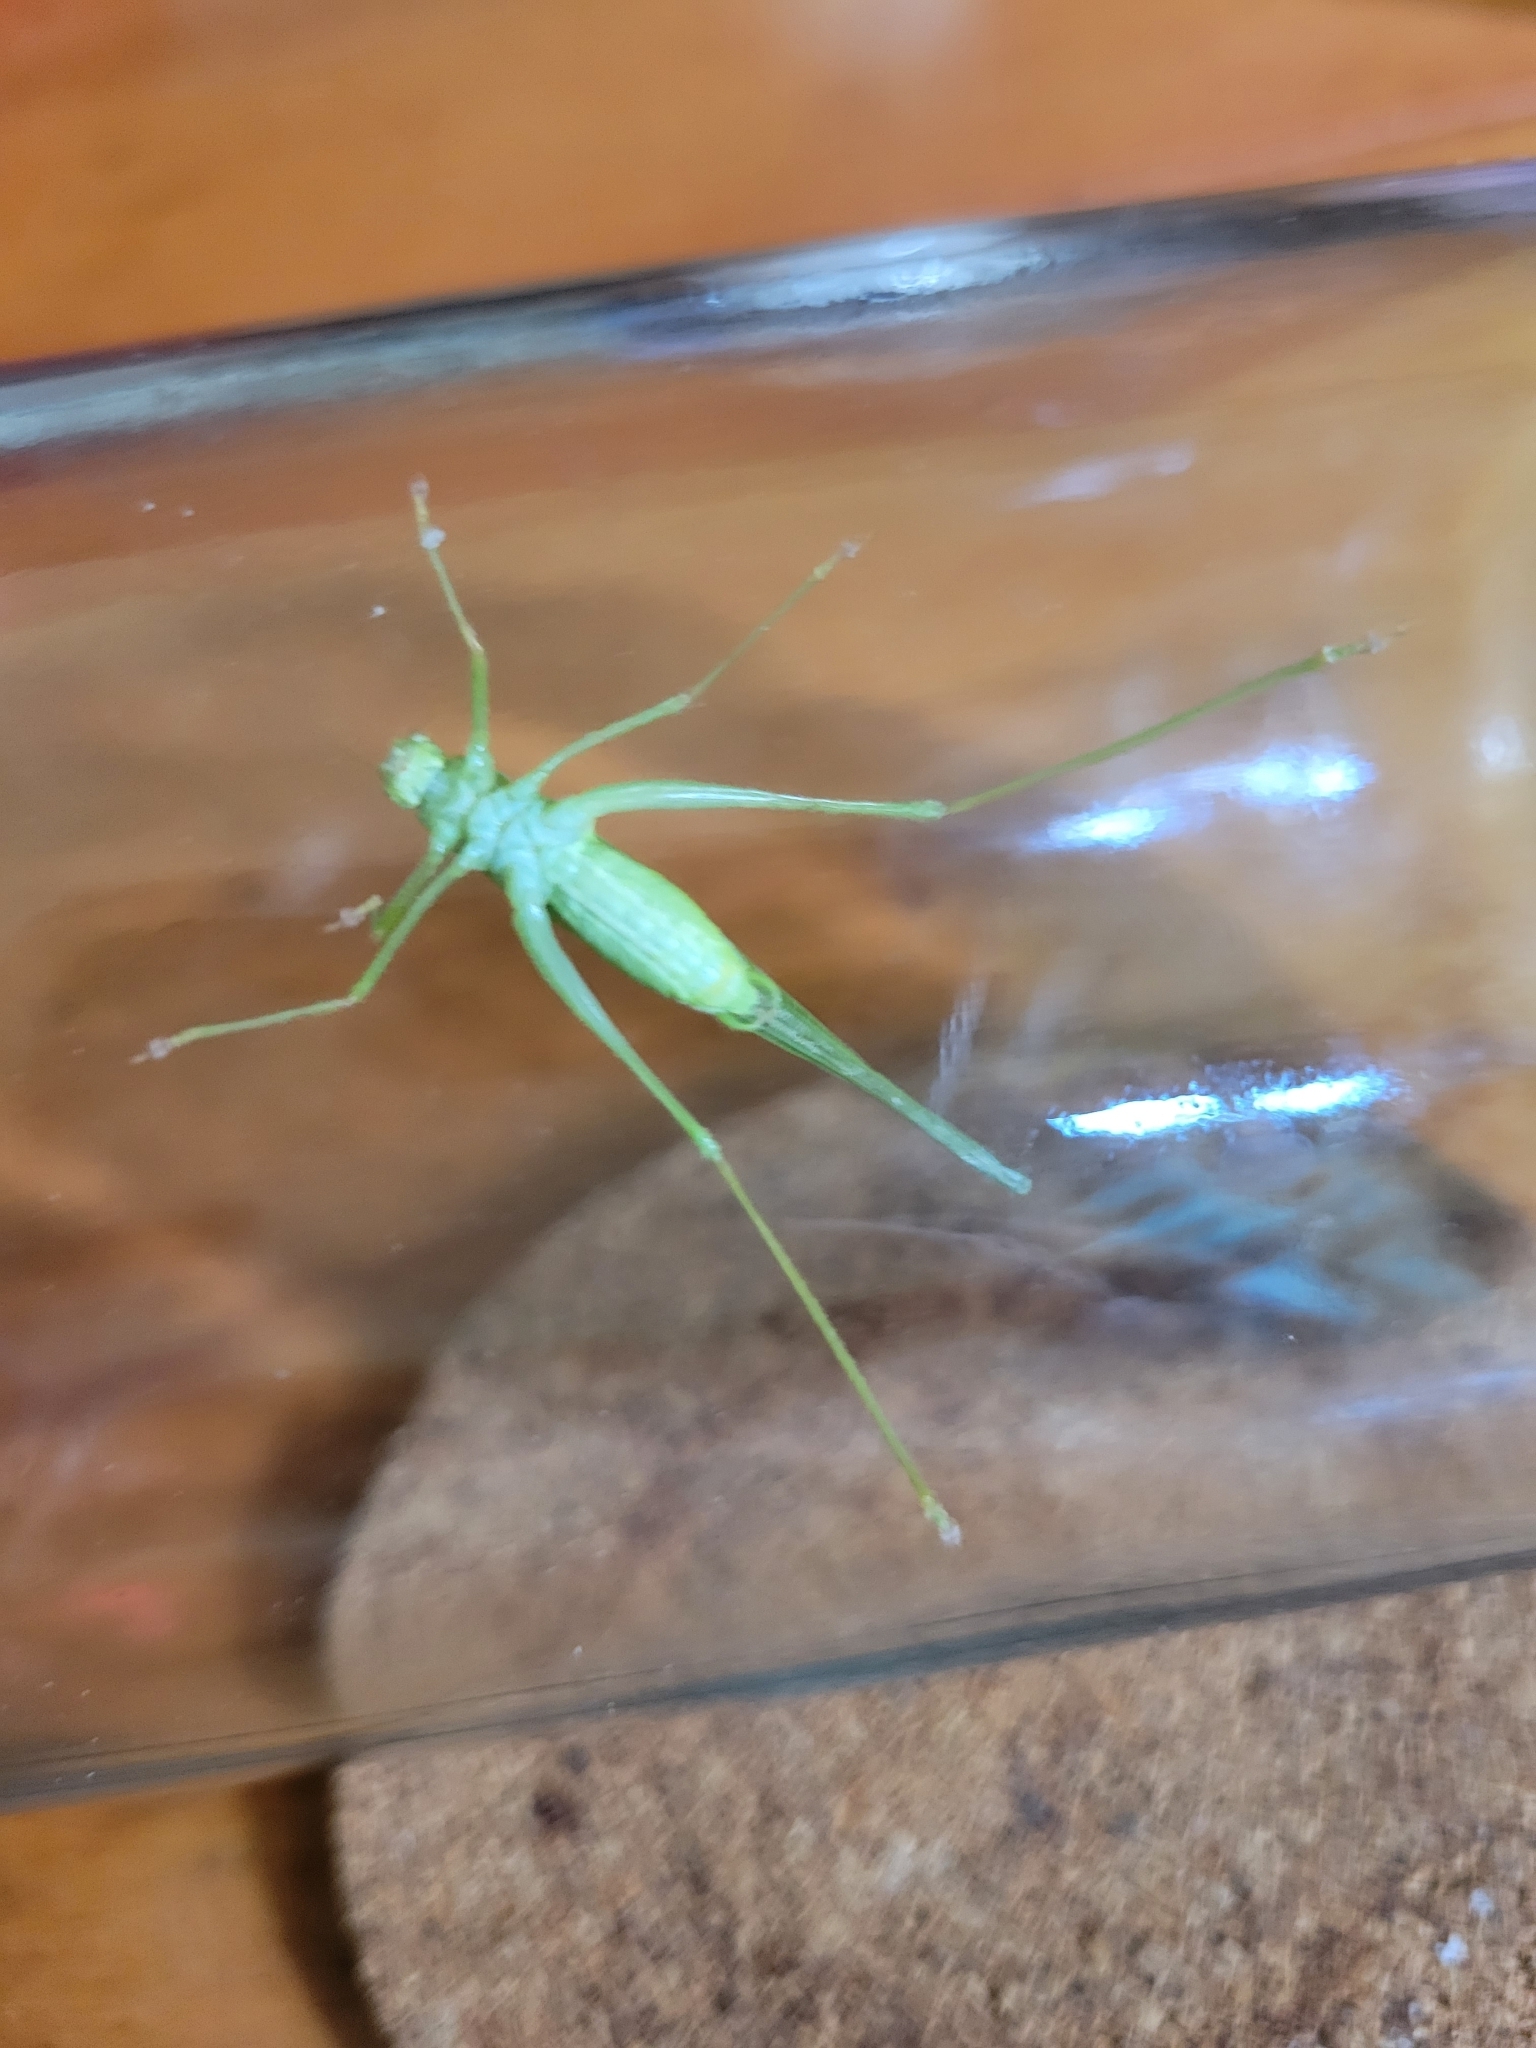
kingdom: Animalia
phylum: Arthropoda
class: Insecta
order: Orthoptera
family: Tettigoniidae
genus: Phaneroptera
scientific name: Phaneroptera nana
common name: Southern sickle bush-cricket
